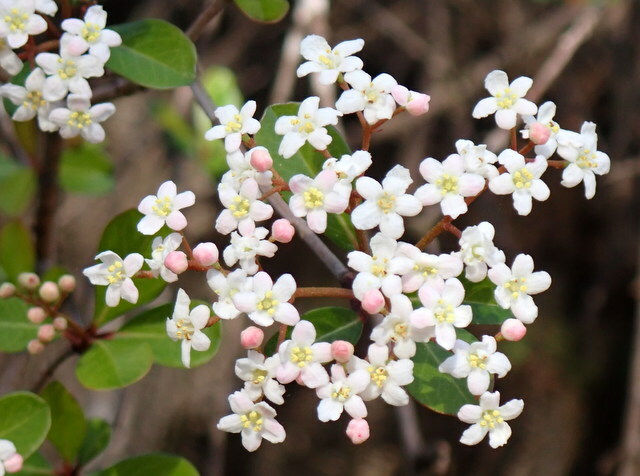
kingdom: Plantae
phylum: Tracheophyta
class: Magnoliopsida
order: Dipsacales
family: Viburnaceae
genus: Viburnum
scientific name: Viburnum obovatum
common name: Walter's viburnum
